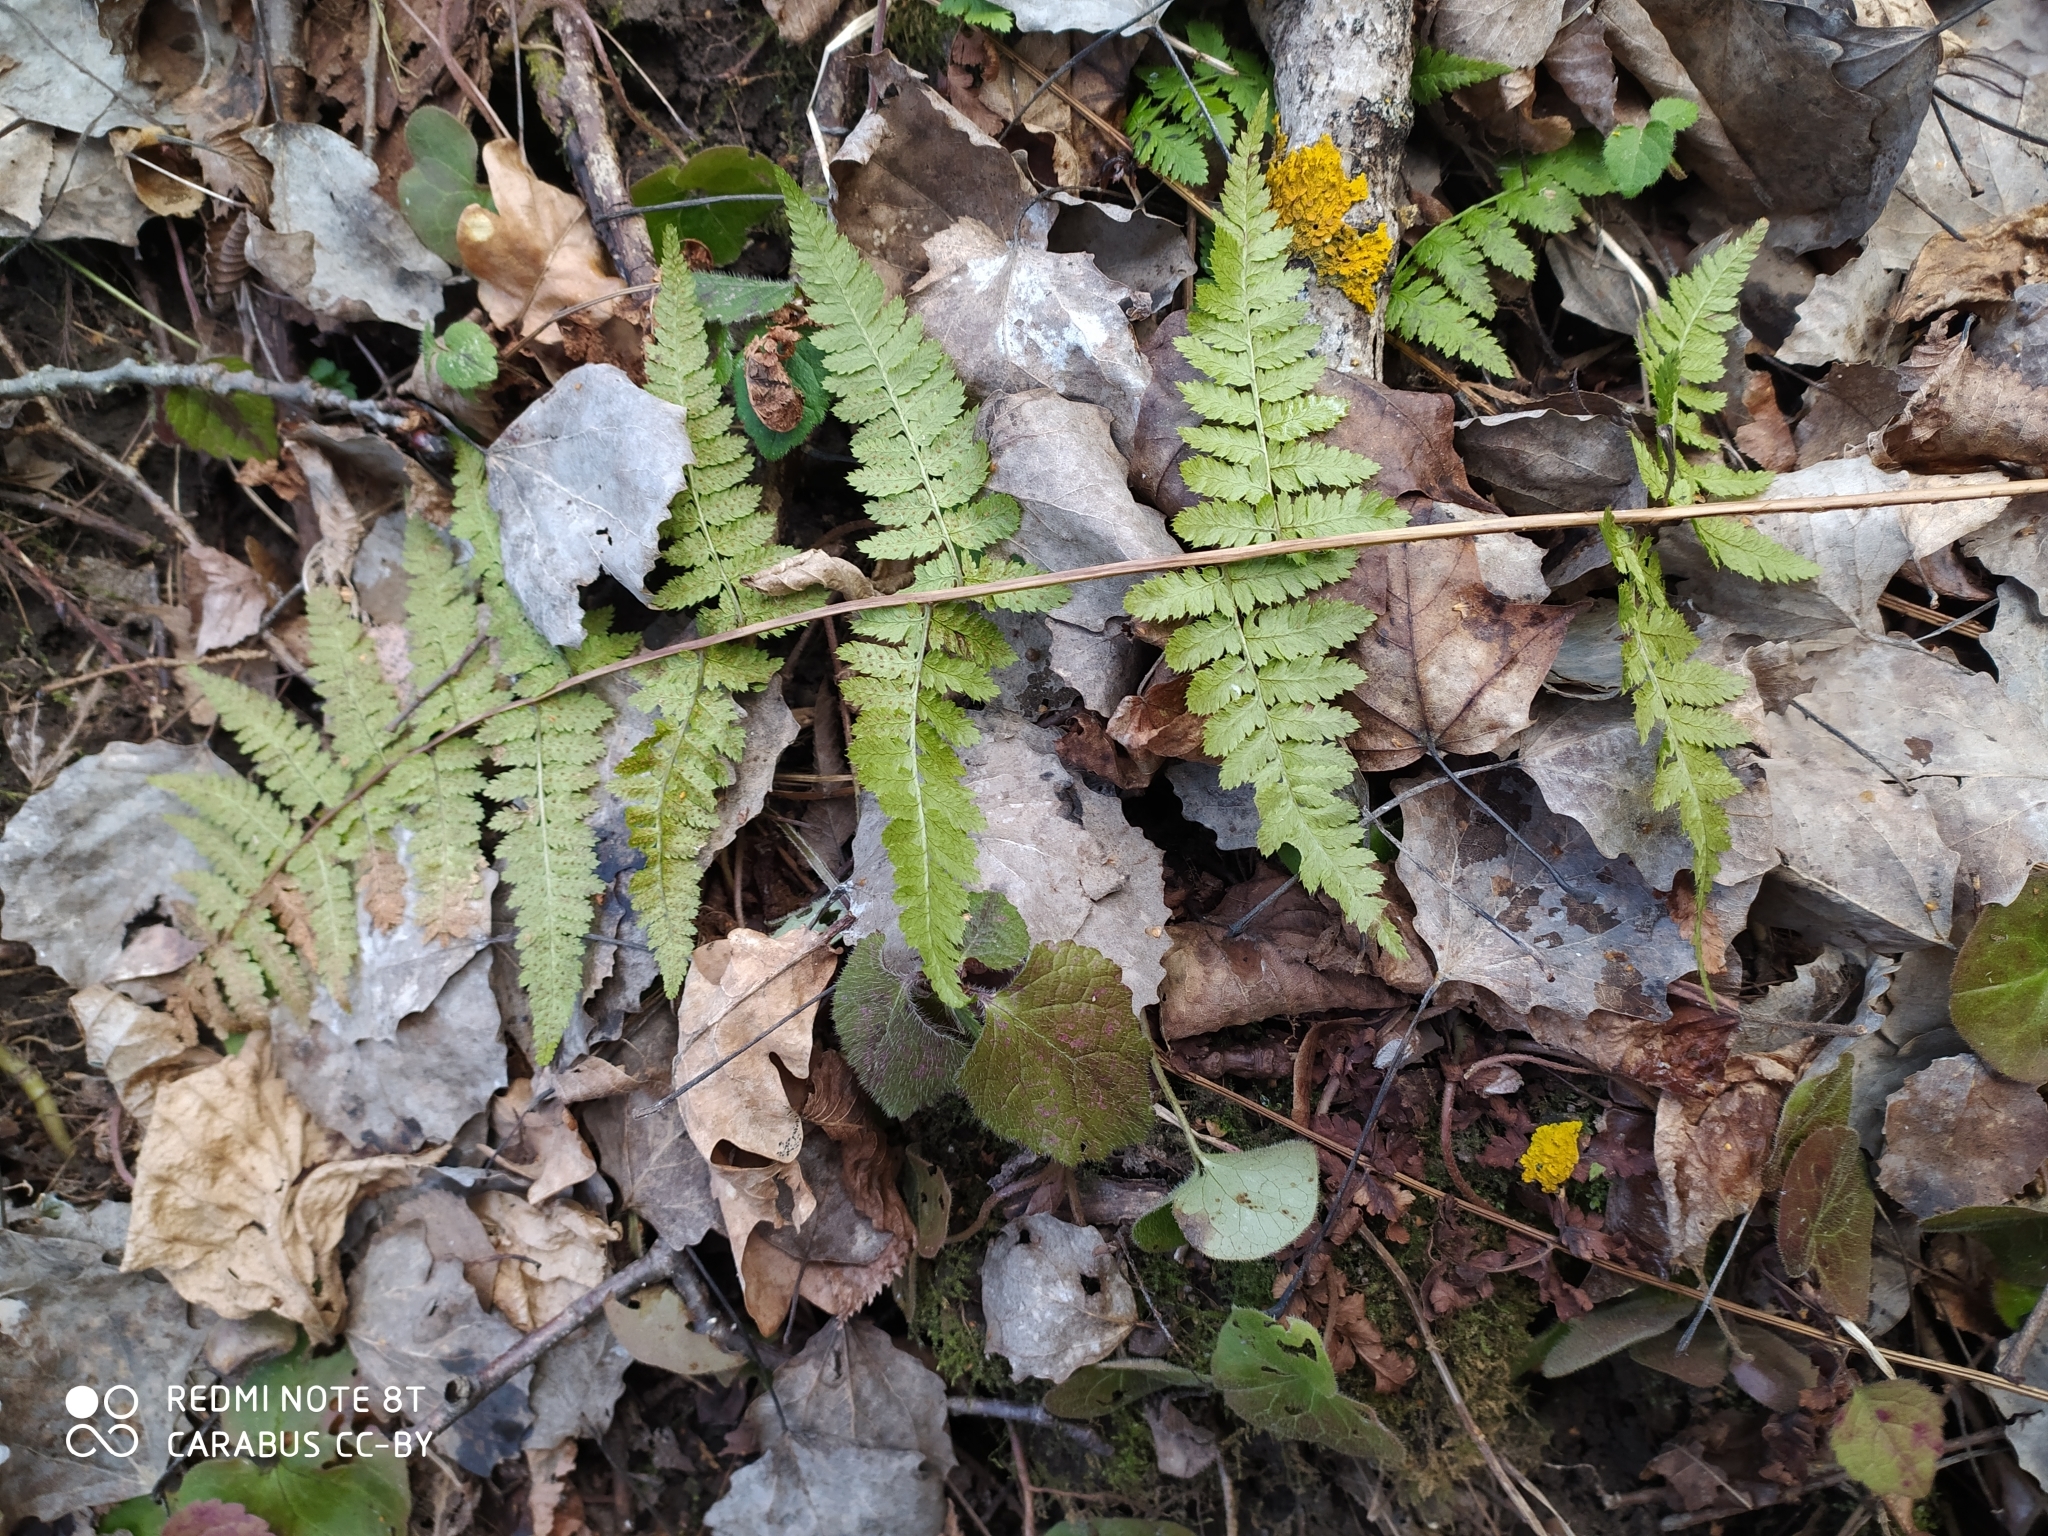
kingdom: Plantae
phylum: Tracheophyta
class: Polypodiopsida
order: Polypodiales
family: Dryopteridaceae
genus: Dryopteris
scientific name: Dryopteris carthusiana
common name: Narrow buckler-fern
